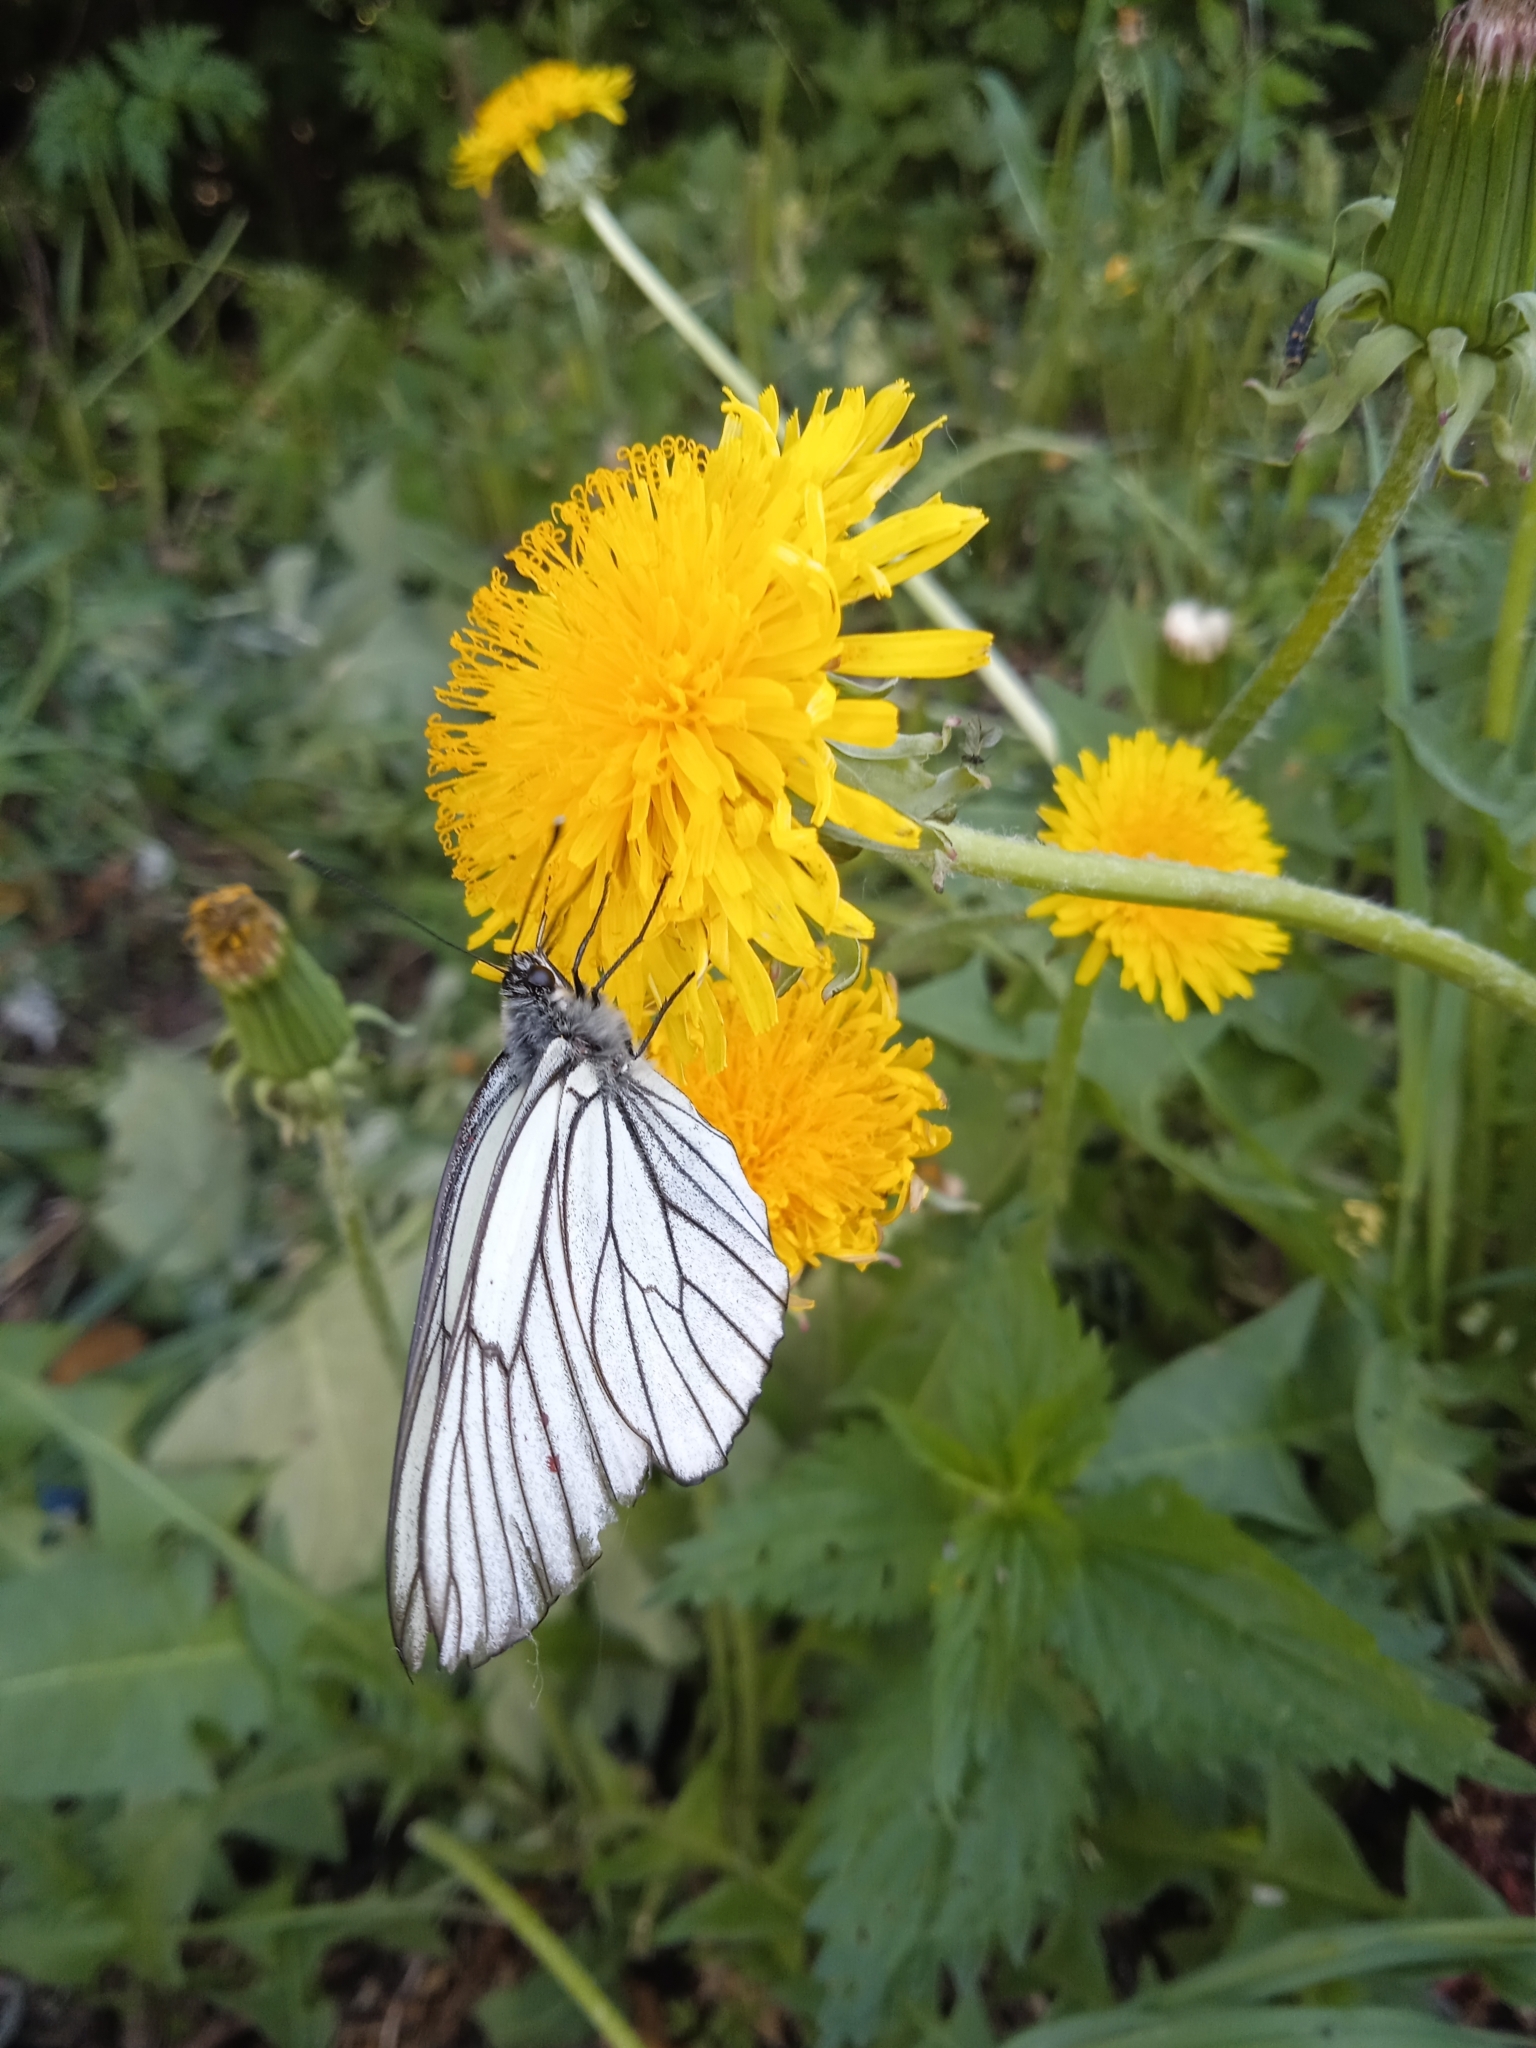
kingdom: Animalia
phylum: Arthropoda
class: Insecta
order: Lepidoptera
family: Pieridae
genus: Aporia
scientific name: Aporia crataegi
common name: Black-veined white
